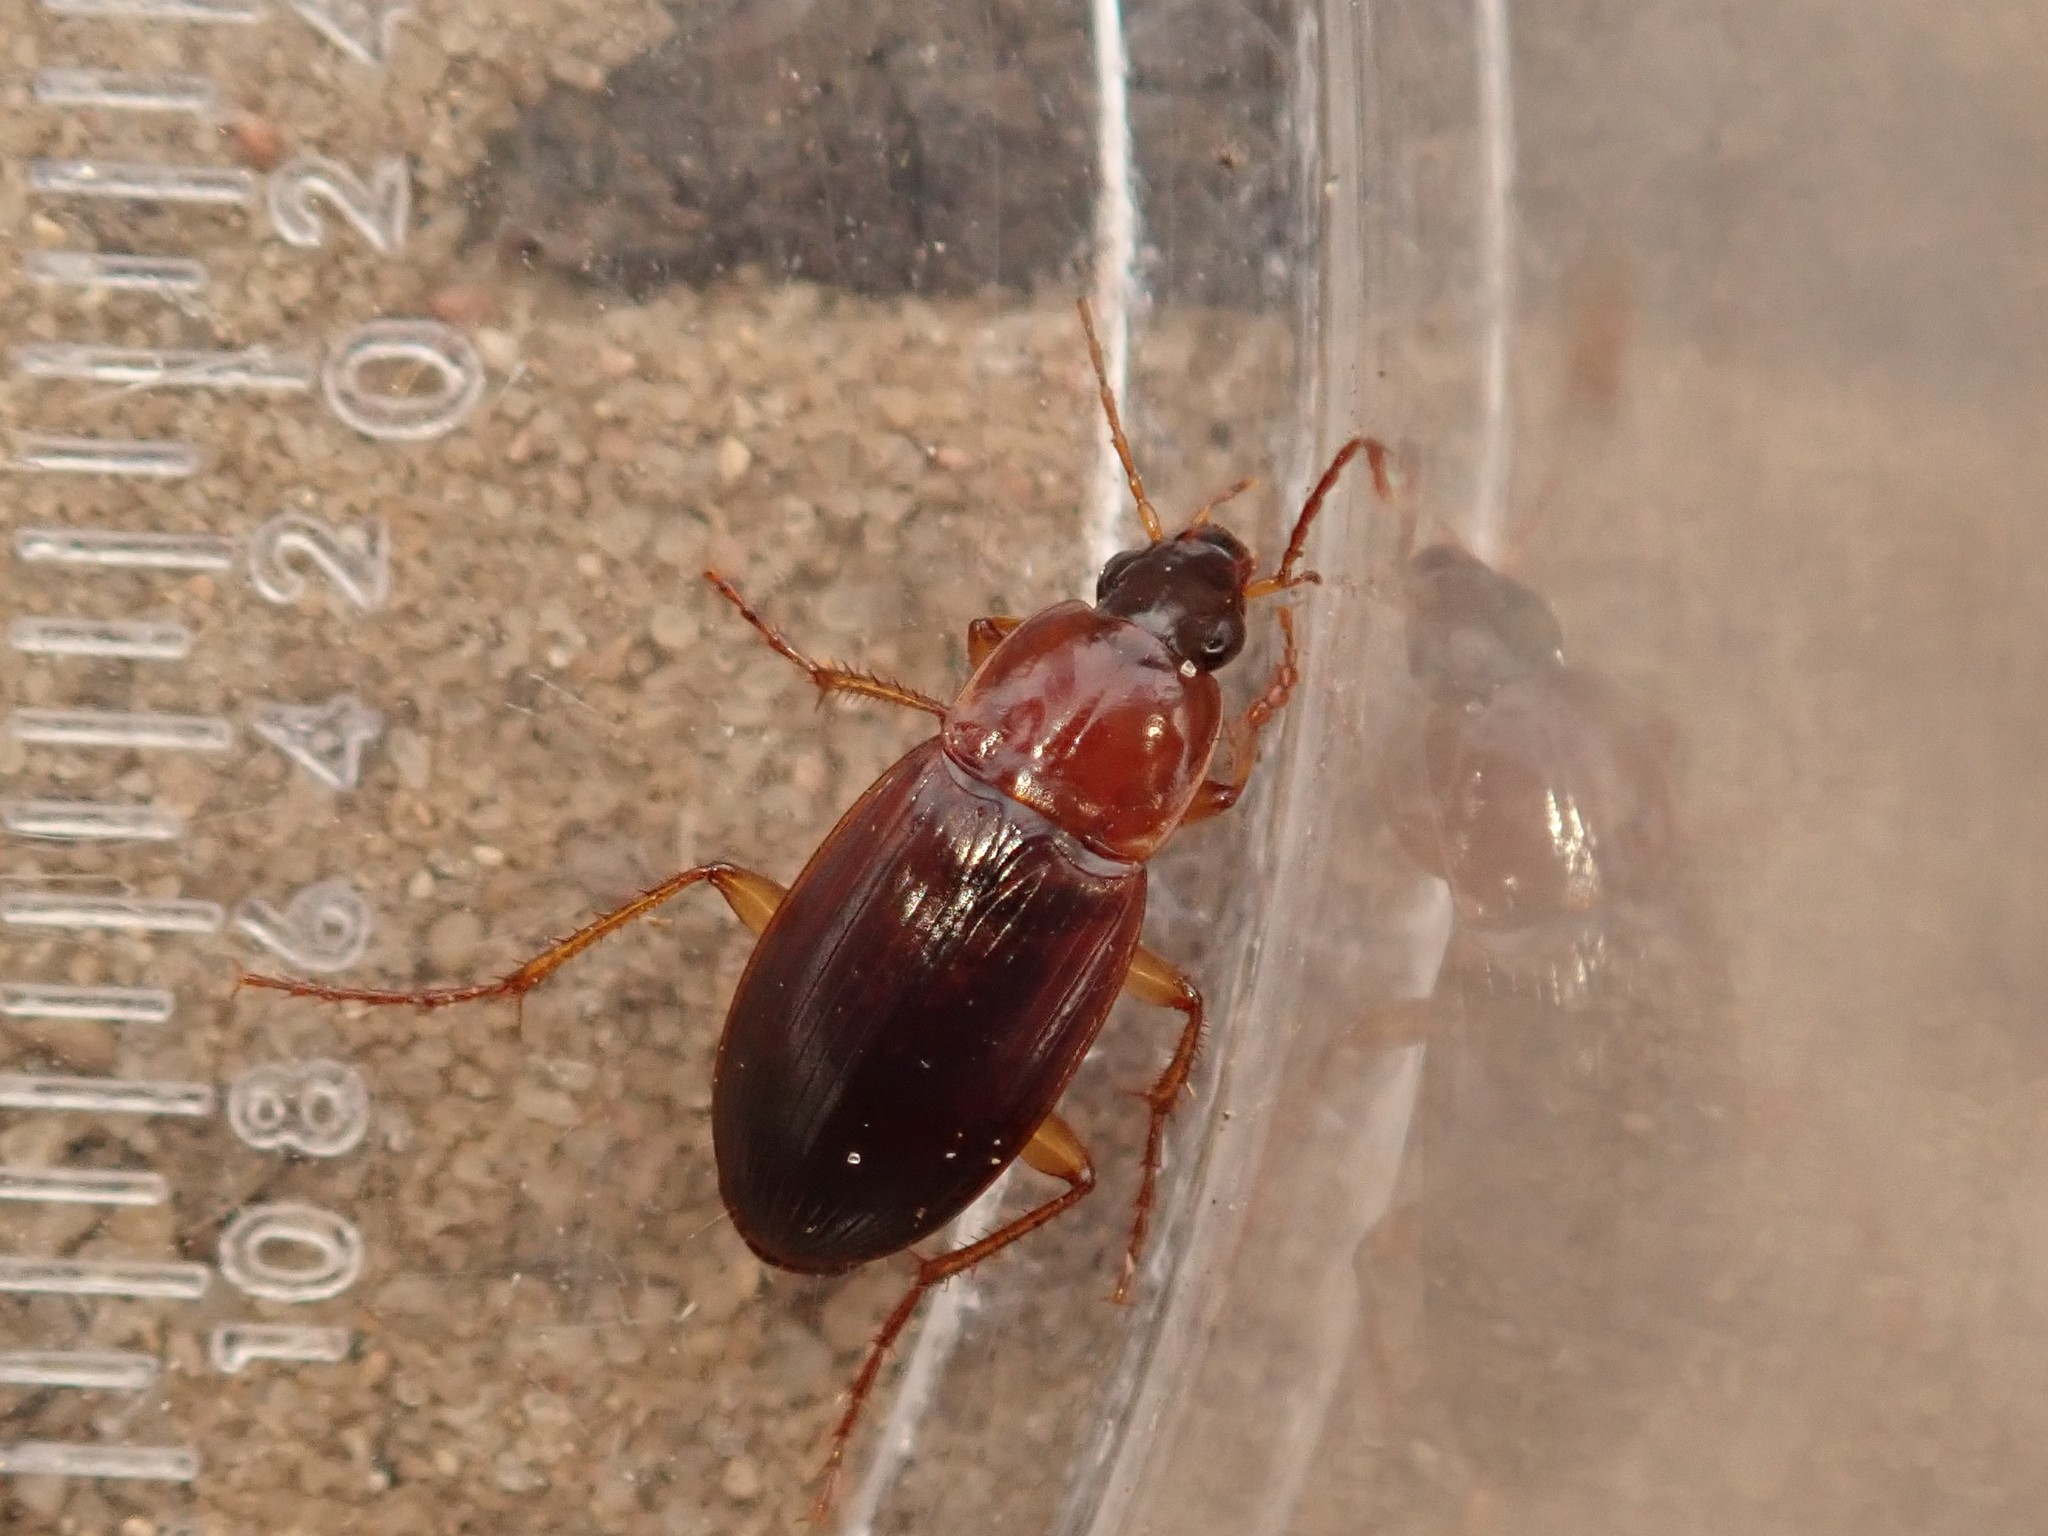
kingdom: Animalia
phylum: Arthropoda
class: Insecta
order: Coleoptera
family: Carabidae
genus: Calathus
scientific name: Calathus cinctus
